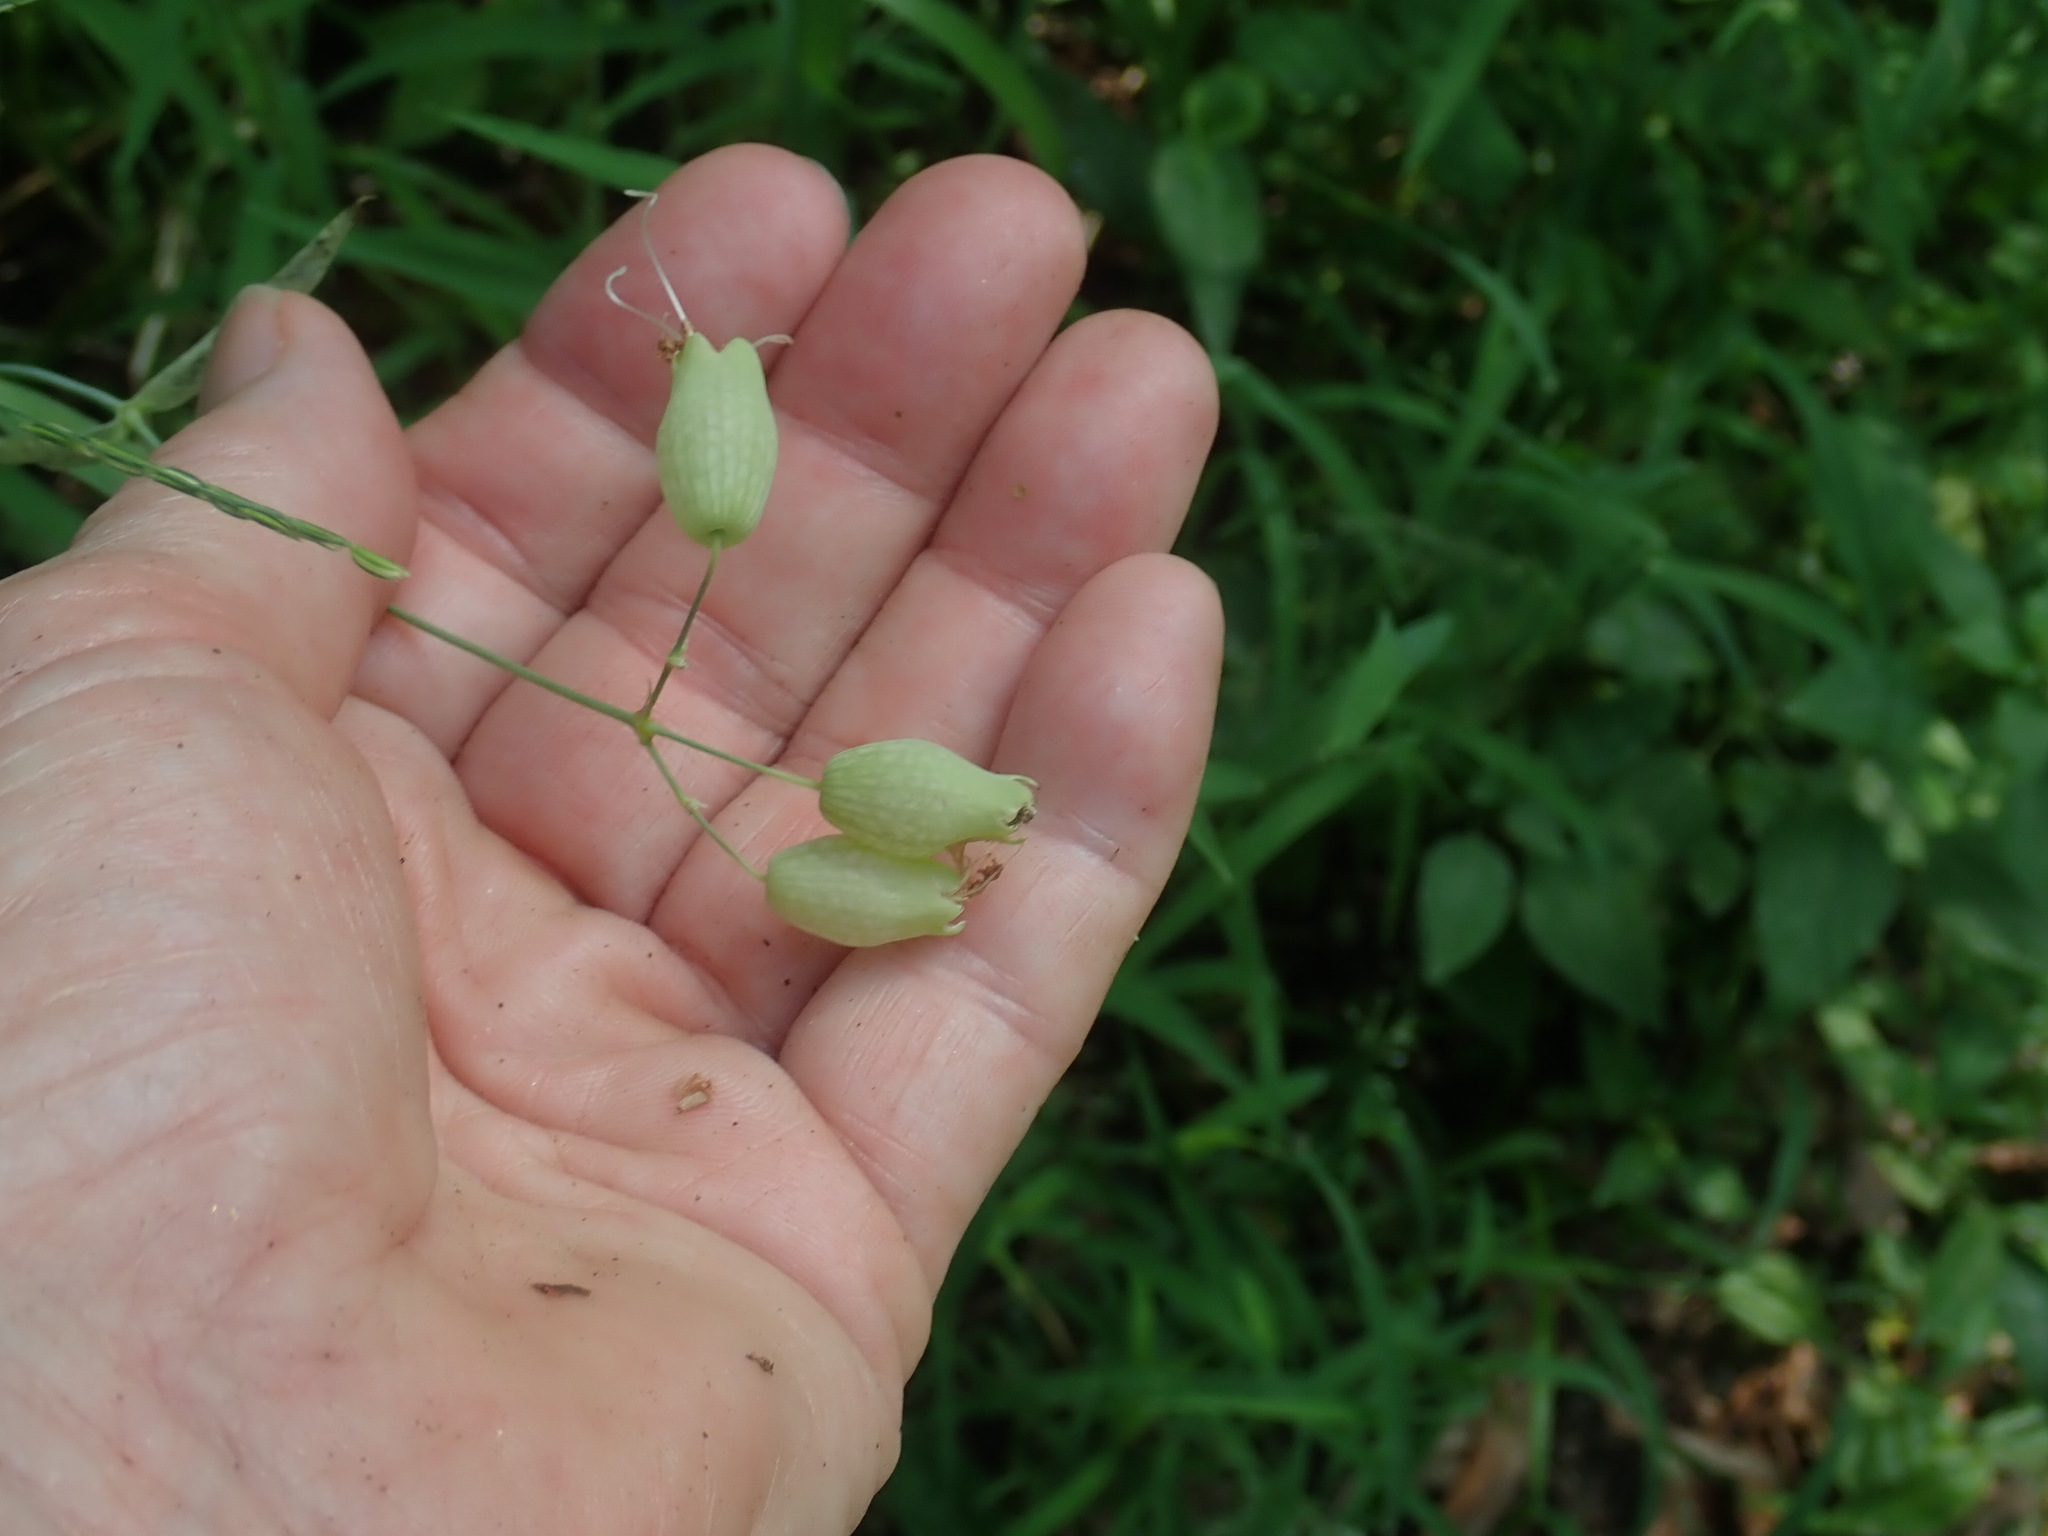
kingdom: Plantae
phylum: Tracheophyta
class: Magnoliopsida
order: Caryophyllales
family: Caryophyllaceae
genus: Silene
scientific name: Silene vulgaris
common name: Bladder campion
